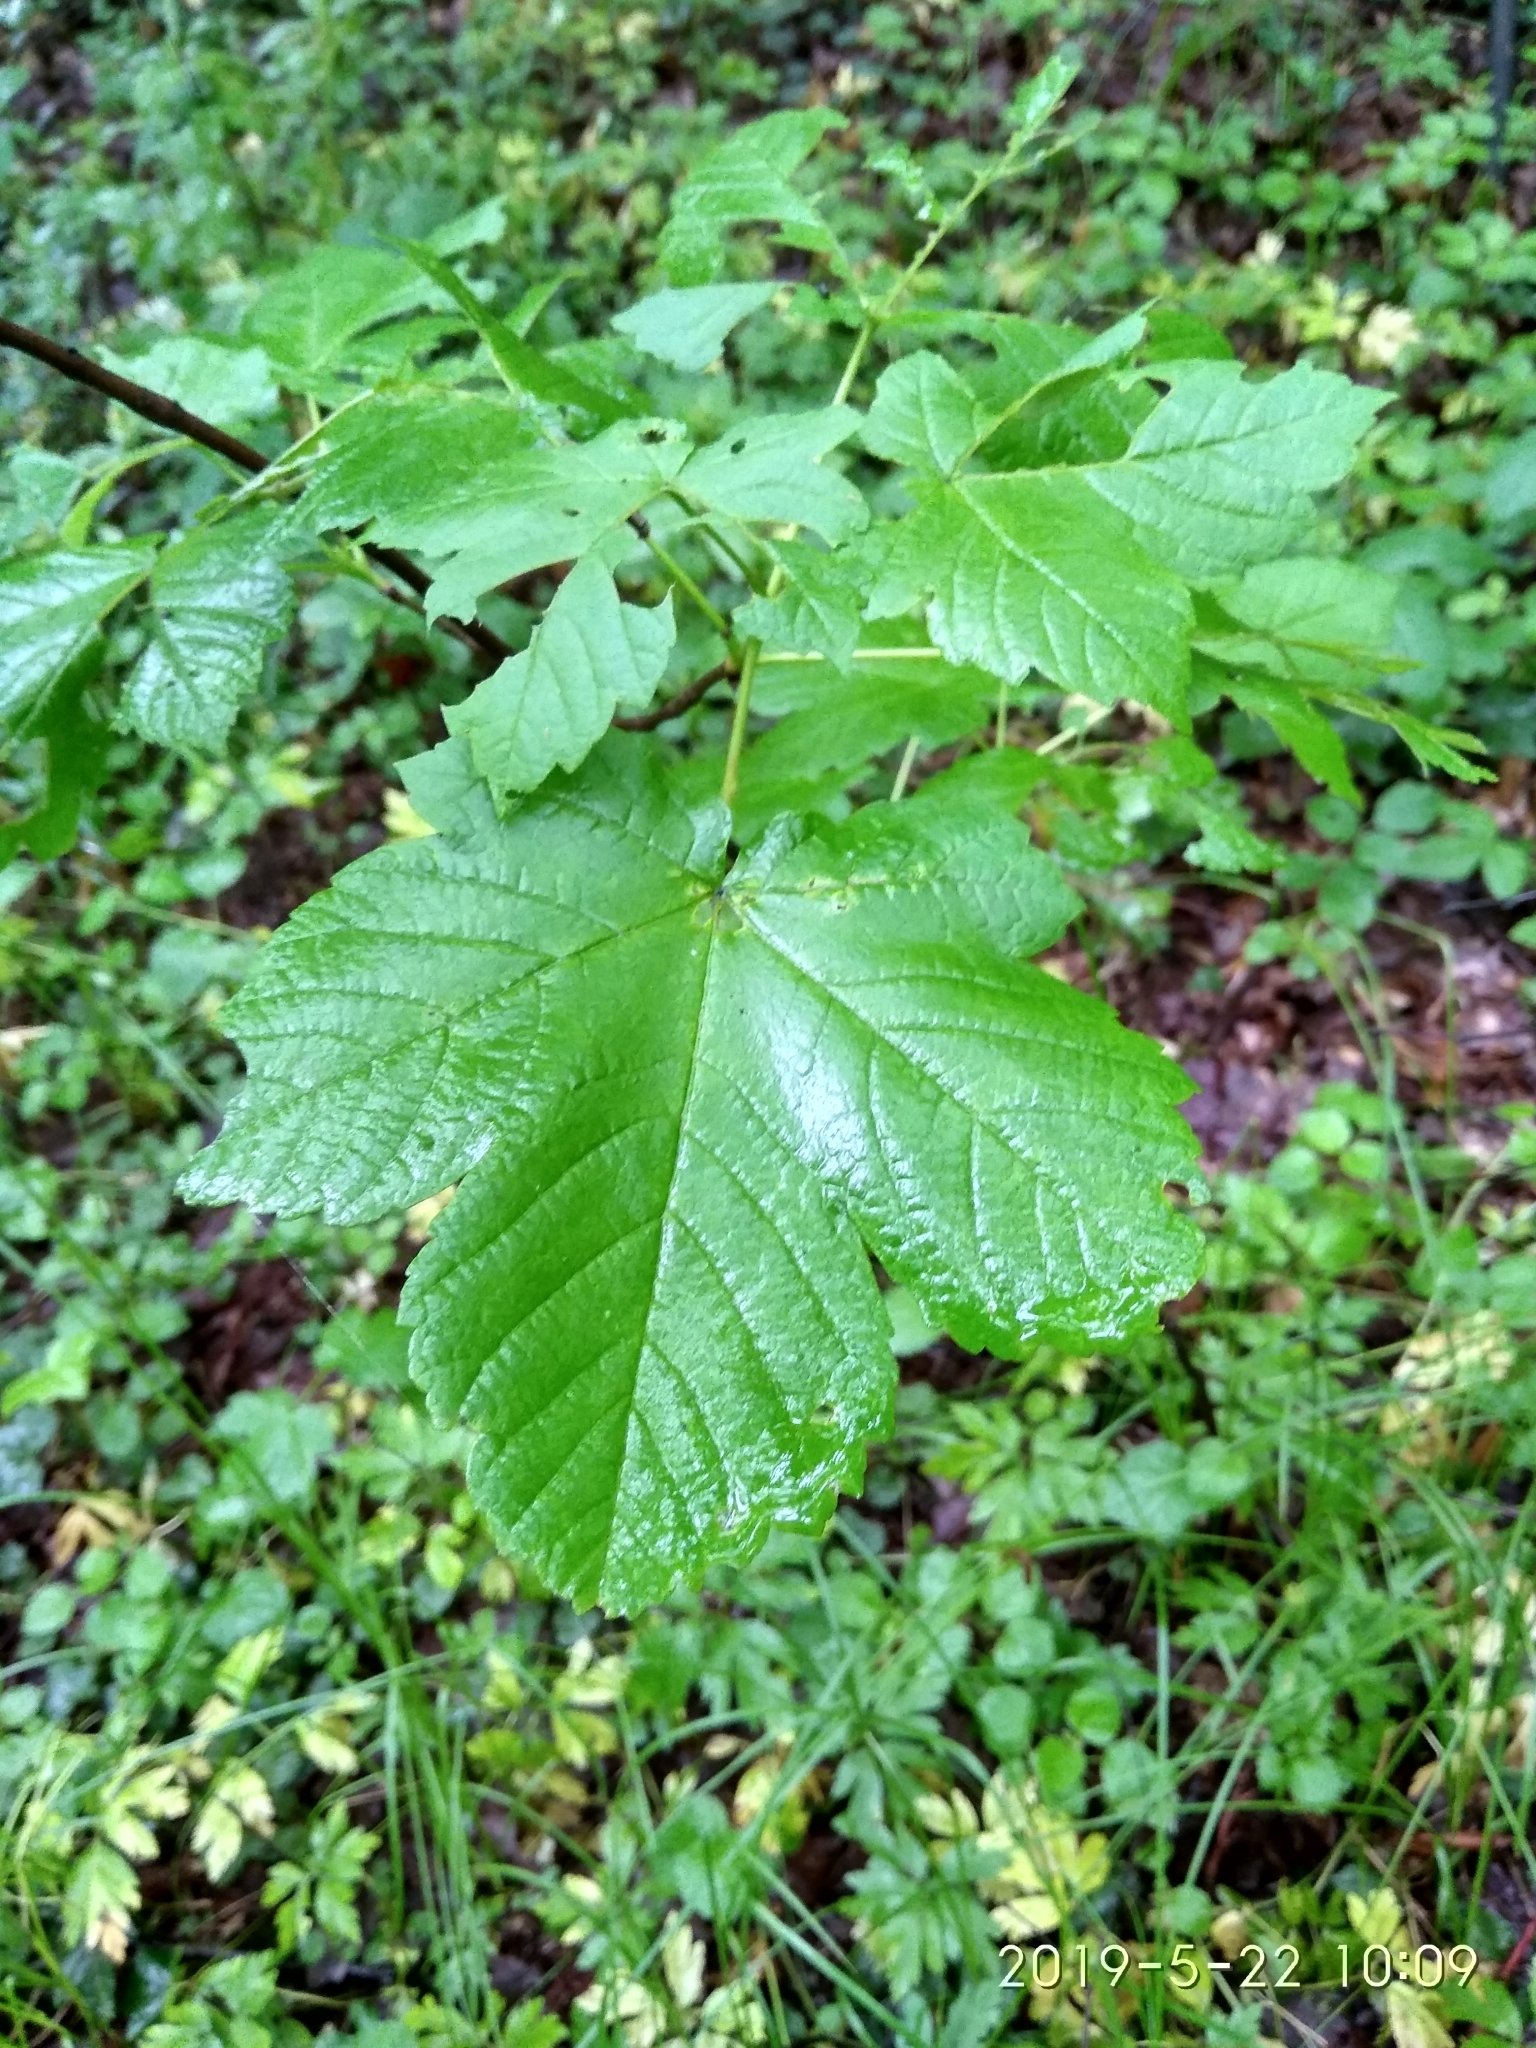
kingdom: Plantae
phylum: Tracheophyta
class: Magnoliopsida
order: Sapindales
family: Sapindaceae
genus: Acer
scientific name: Acer pseudoplatanus
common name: Sycamore
